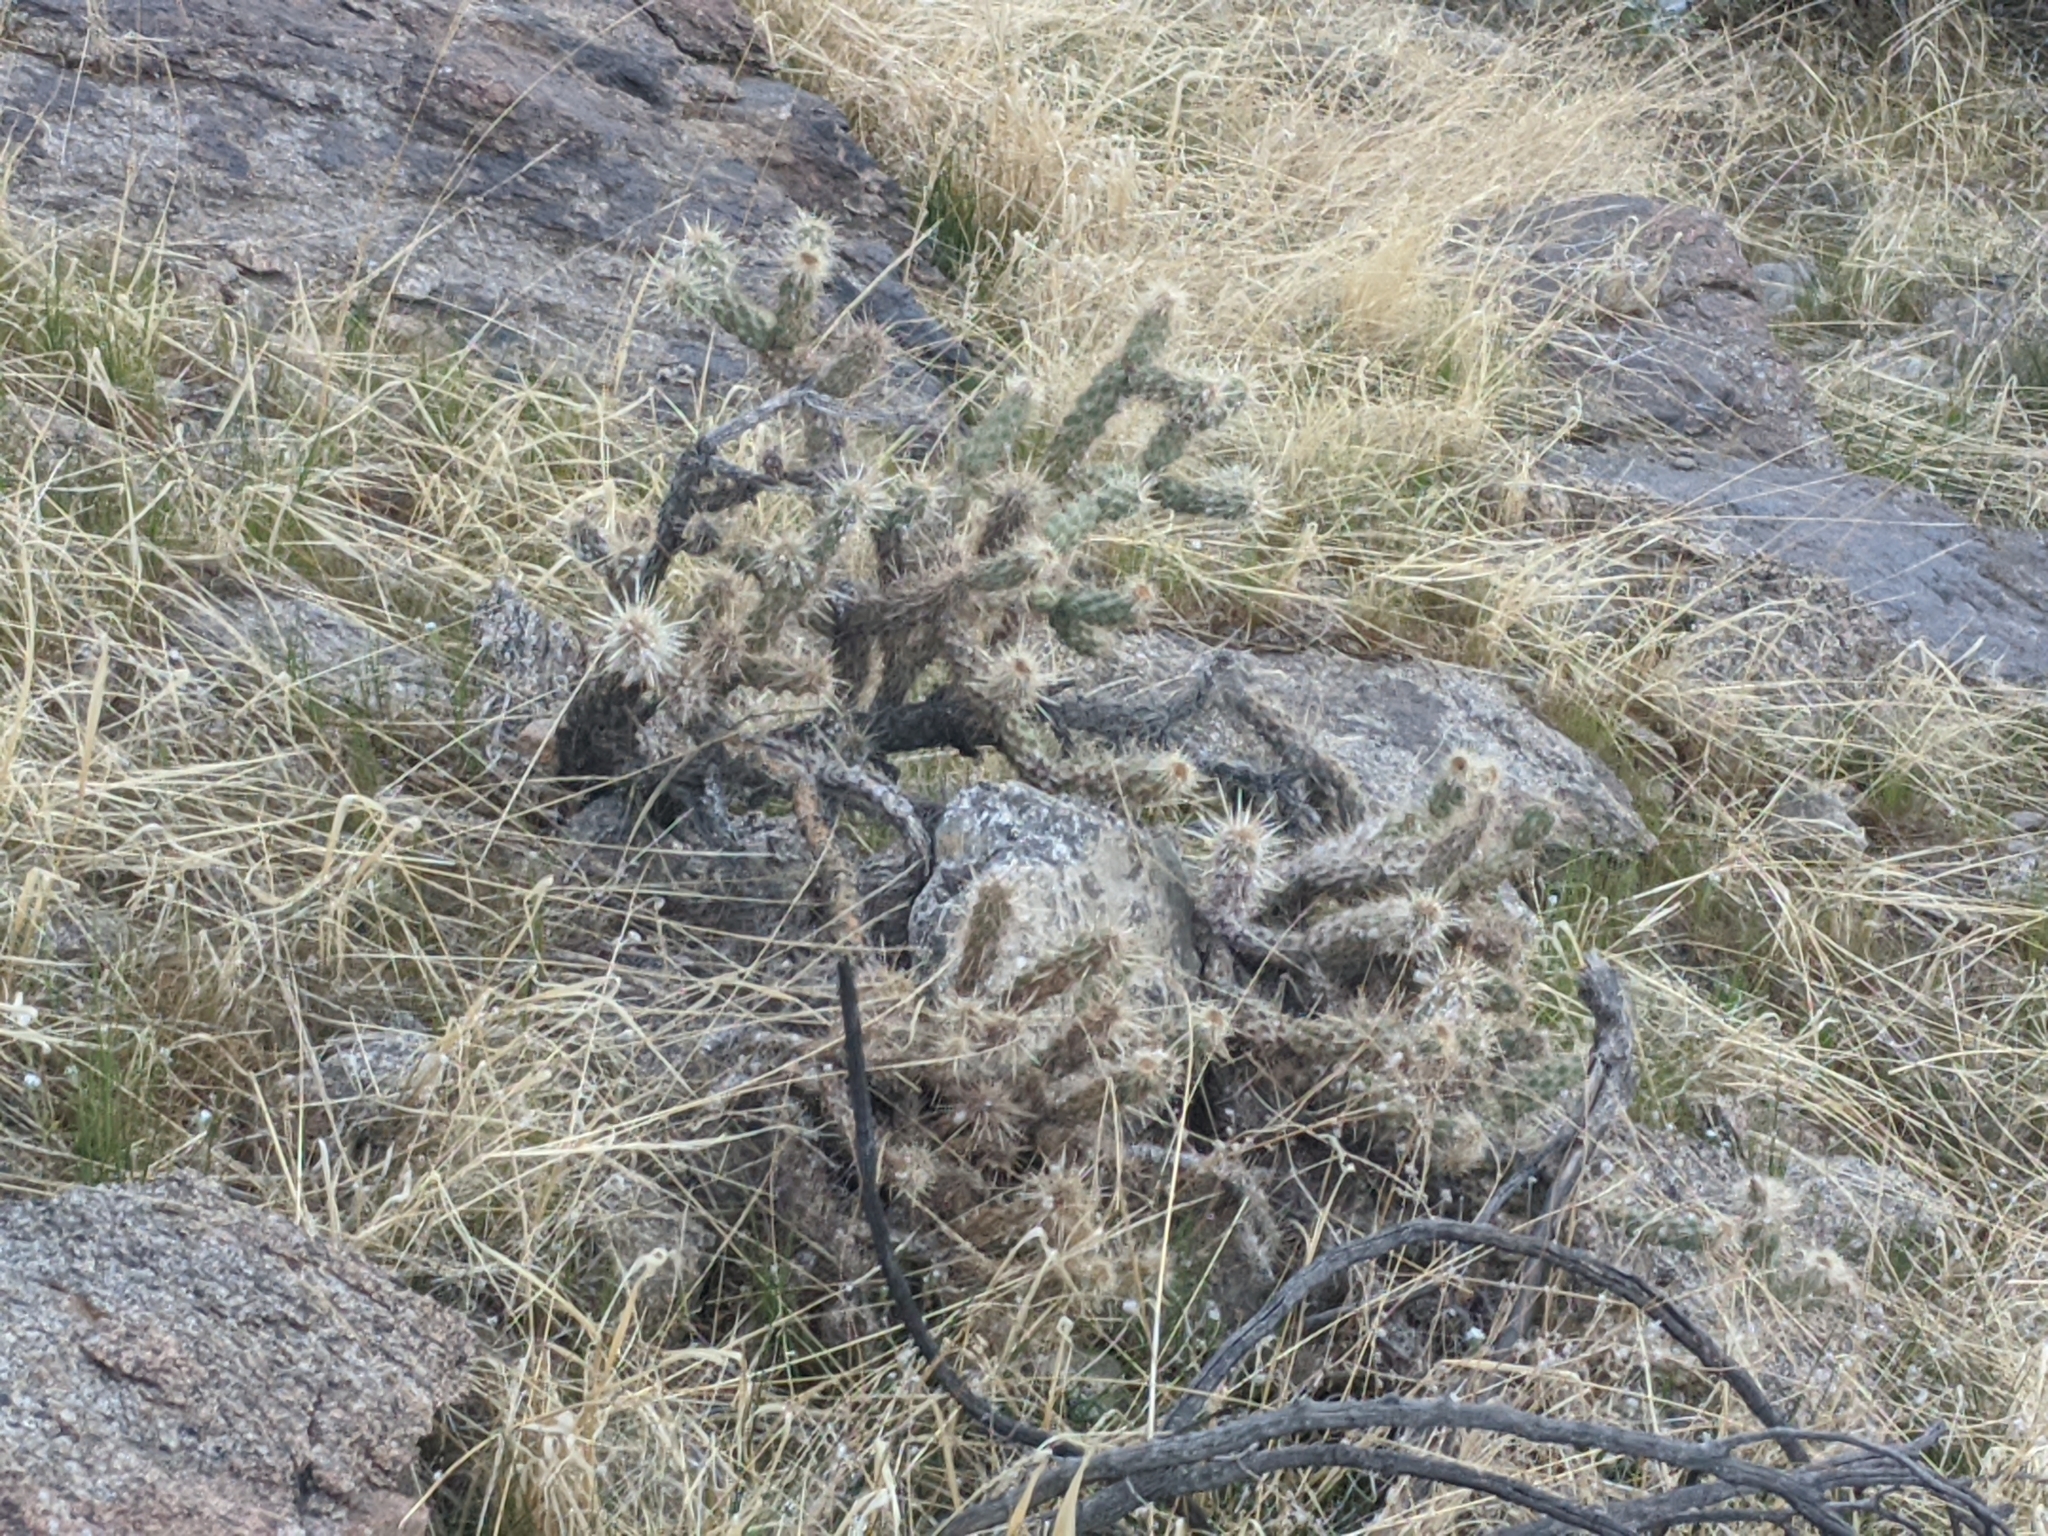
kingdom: Plantae
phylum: Tracheophyta
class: Magnoliopsida
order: Caryophyllales
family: Cactaceae
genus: Cylindropuntia
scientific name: Cylindropuntia echinocarpa
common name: Ground cholla
